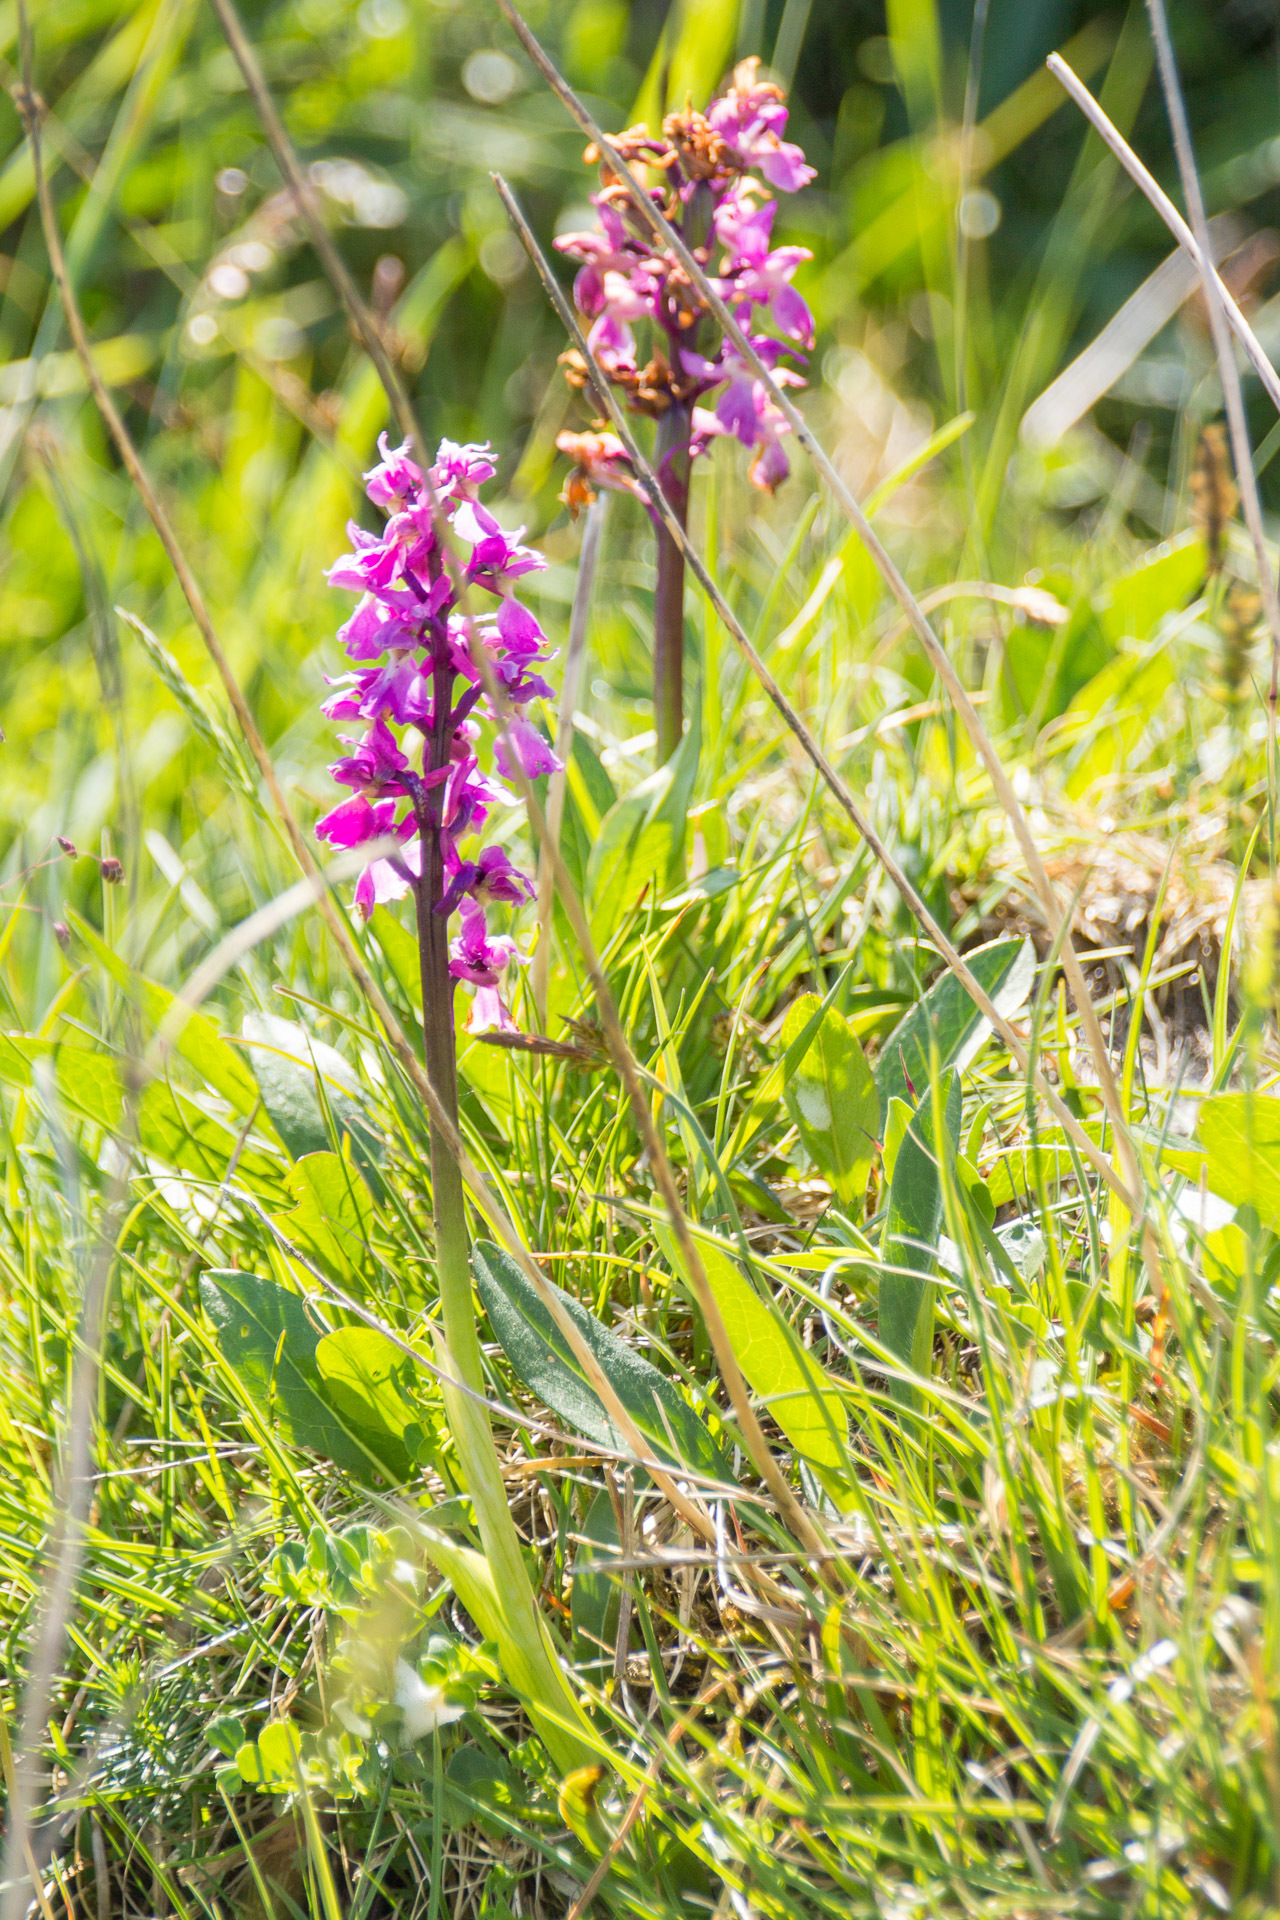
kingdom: Plantae
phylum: Tracheophyta
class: Liliopsida
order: Asparagales
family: Orchidaceae
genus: Orchis
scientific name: Orchis mascula
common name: Early-purple orchid
